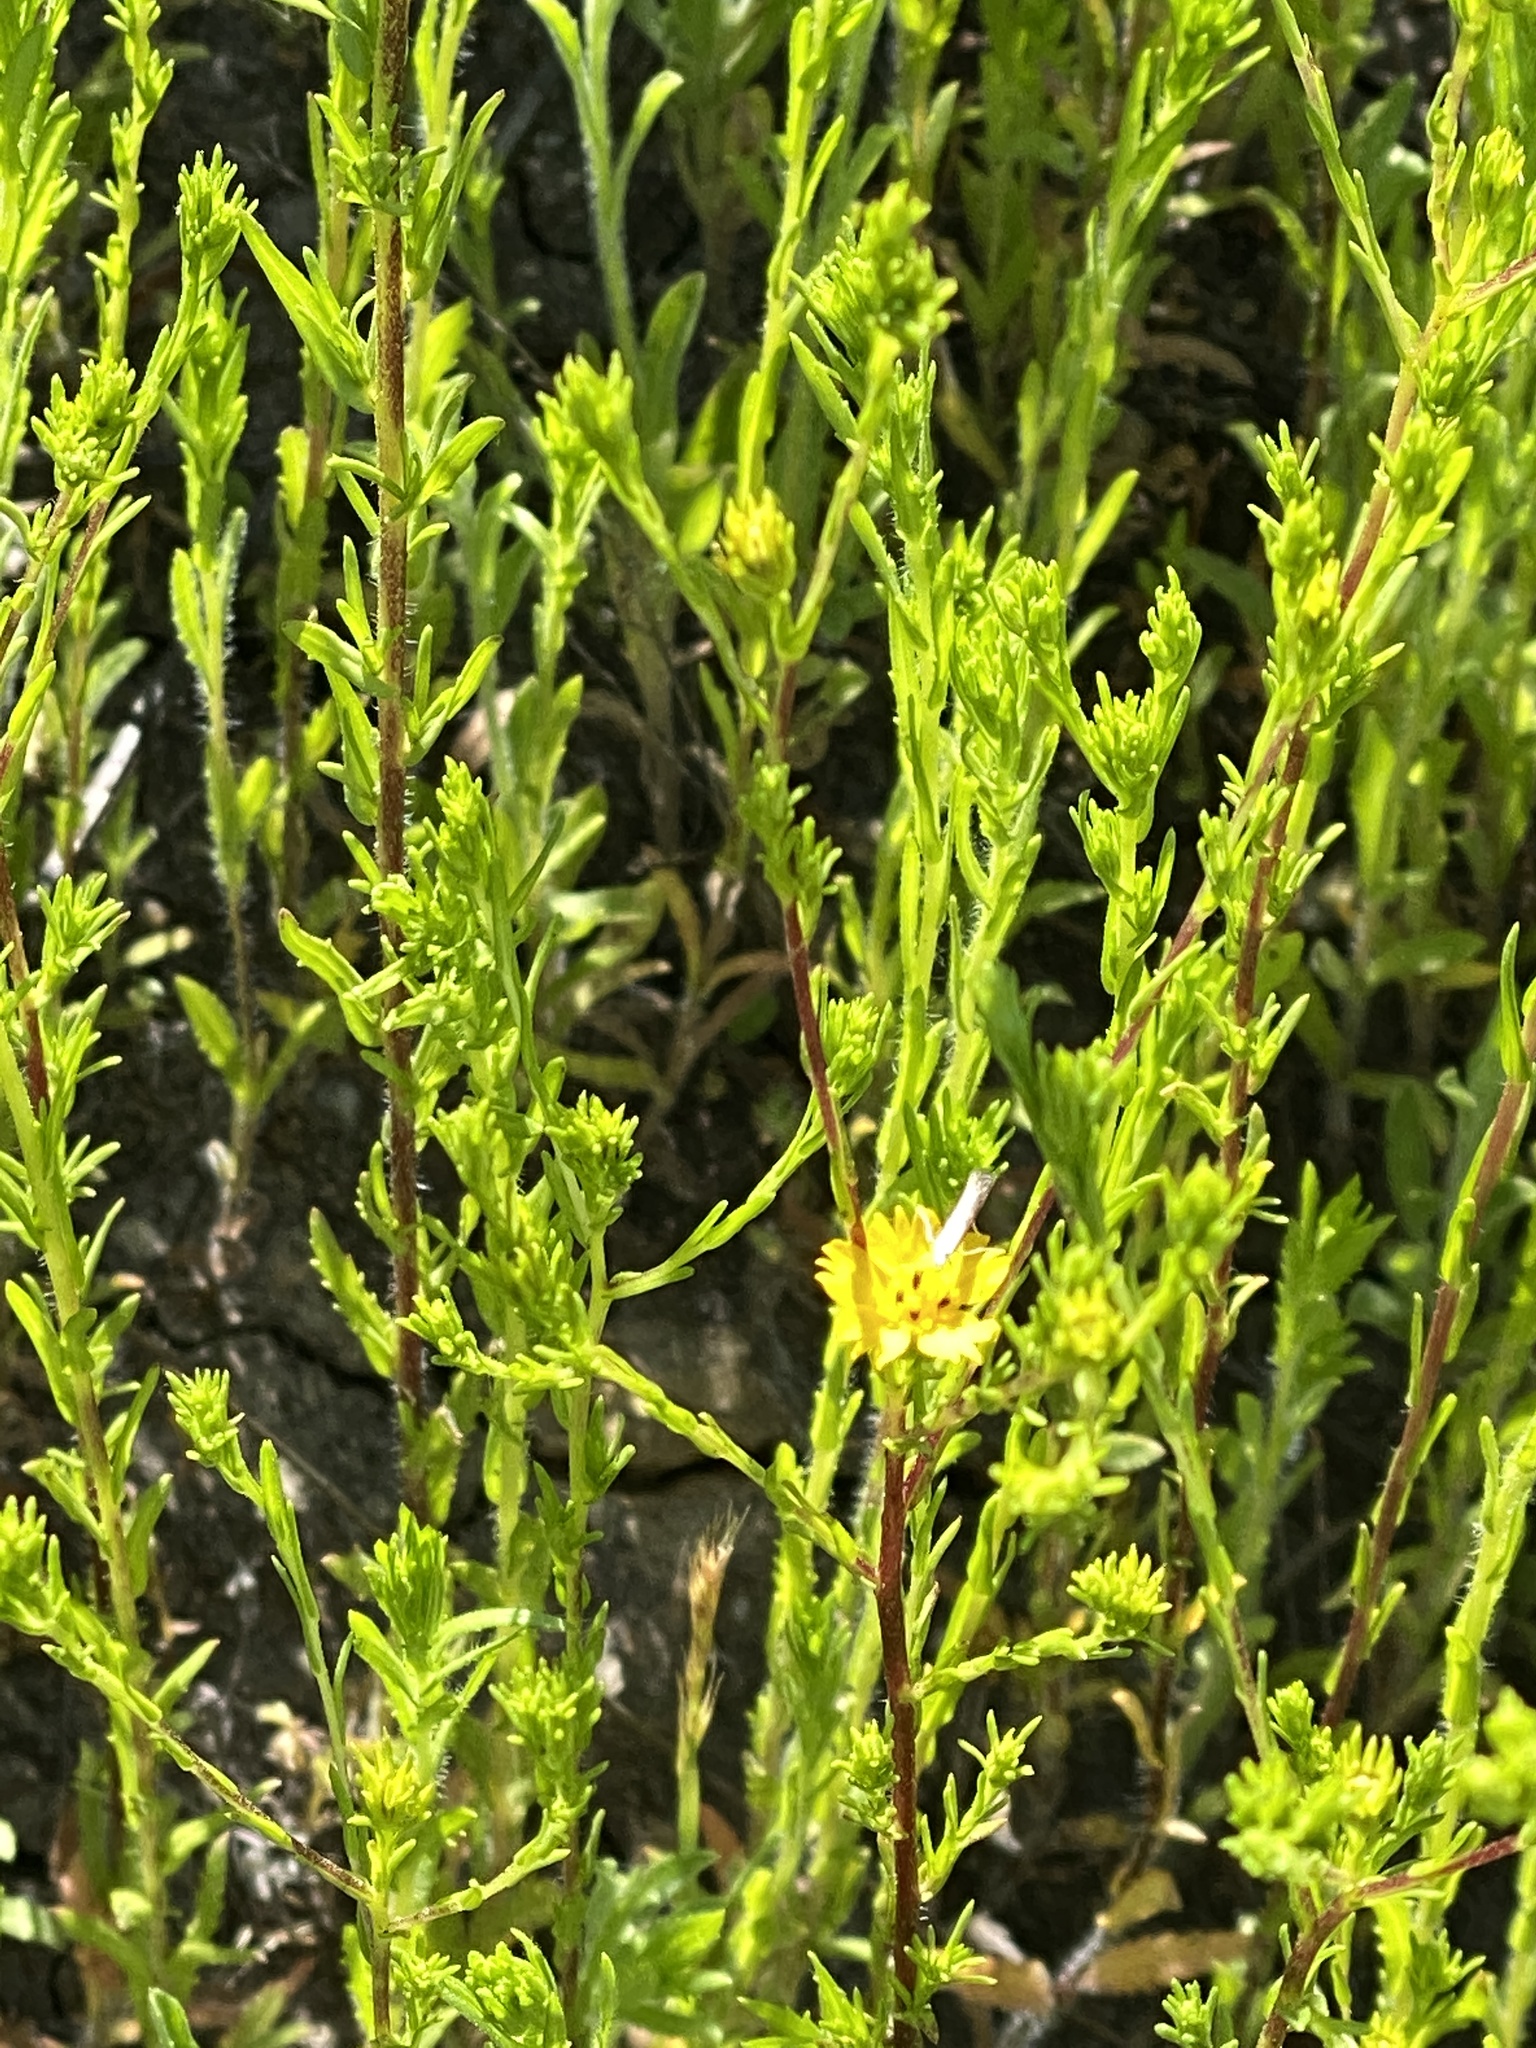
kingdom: Plantae
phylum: Tracheophyta
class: Magnoliopsida
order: Asterales
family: Asteraceae
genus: Deinandra
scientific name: Deinandra fasciculata
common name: Clustered tarweed
